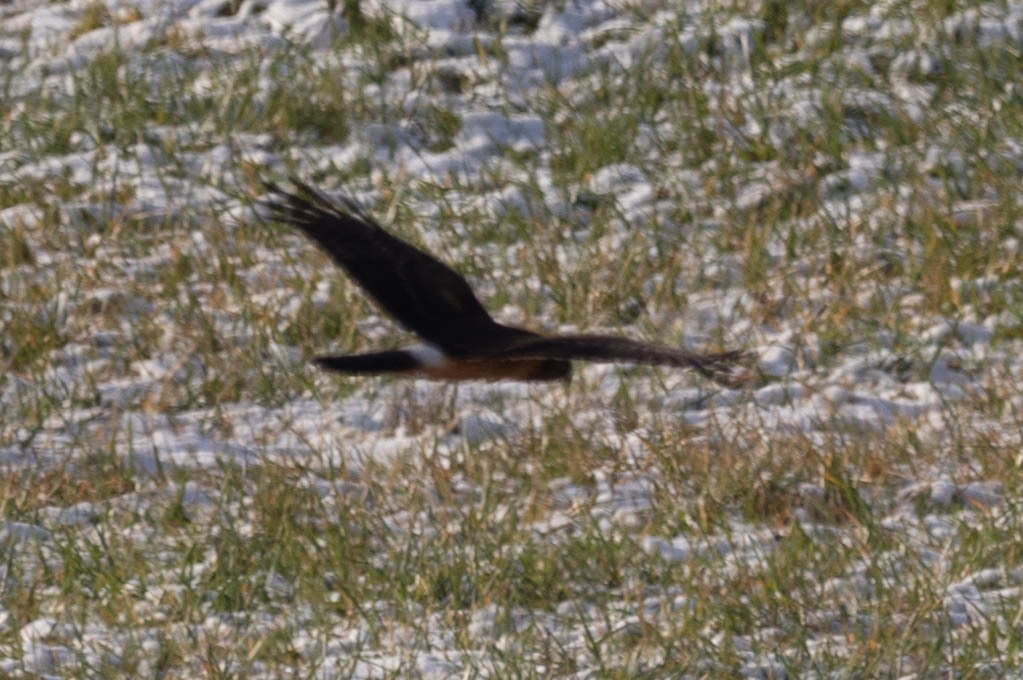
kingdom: Animalia
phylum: Chordata
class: Aves
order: Accipitriformes
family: Accipitridae
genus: Circus
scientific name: Circus cyaneus
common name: Hen harrier
